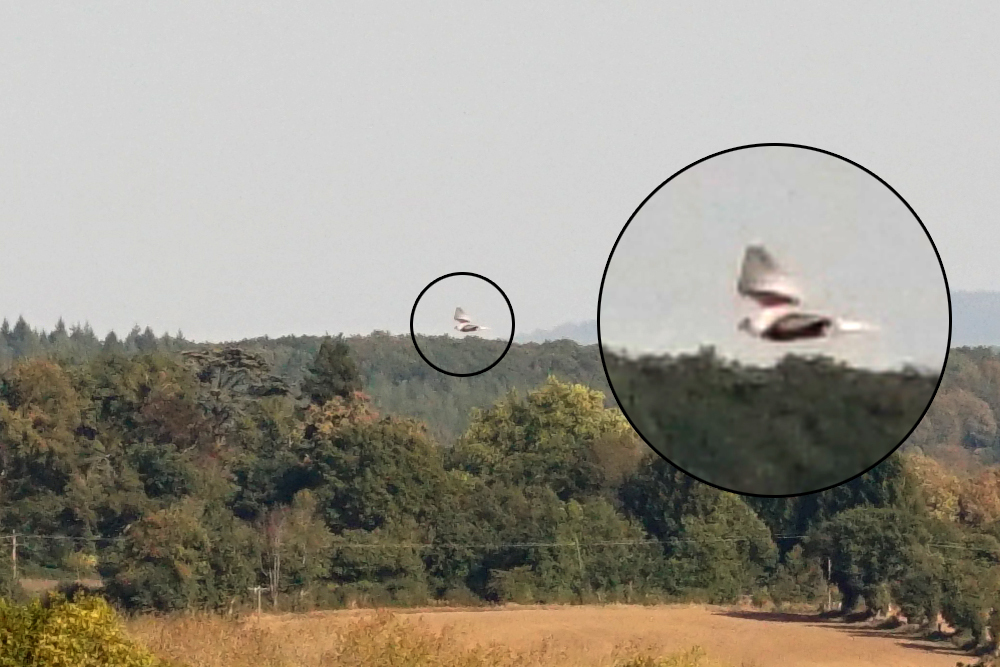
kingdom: Animalia
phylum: Chordata
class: Aves
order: Accipitriformes
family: Accipitridae
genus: Elanus
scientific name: Elanus caeruleus
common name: Black-winged kite
